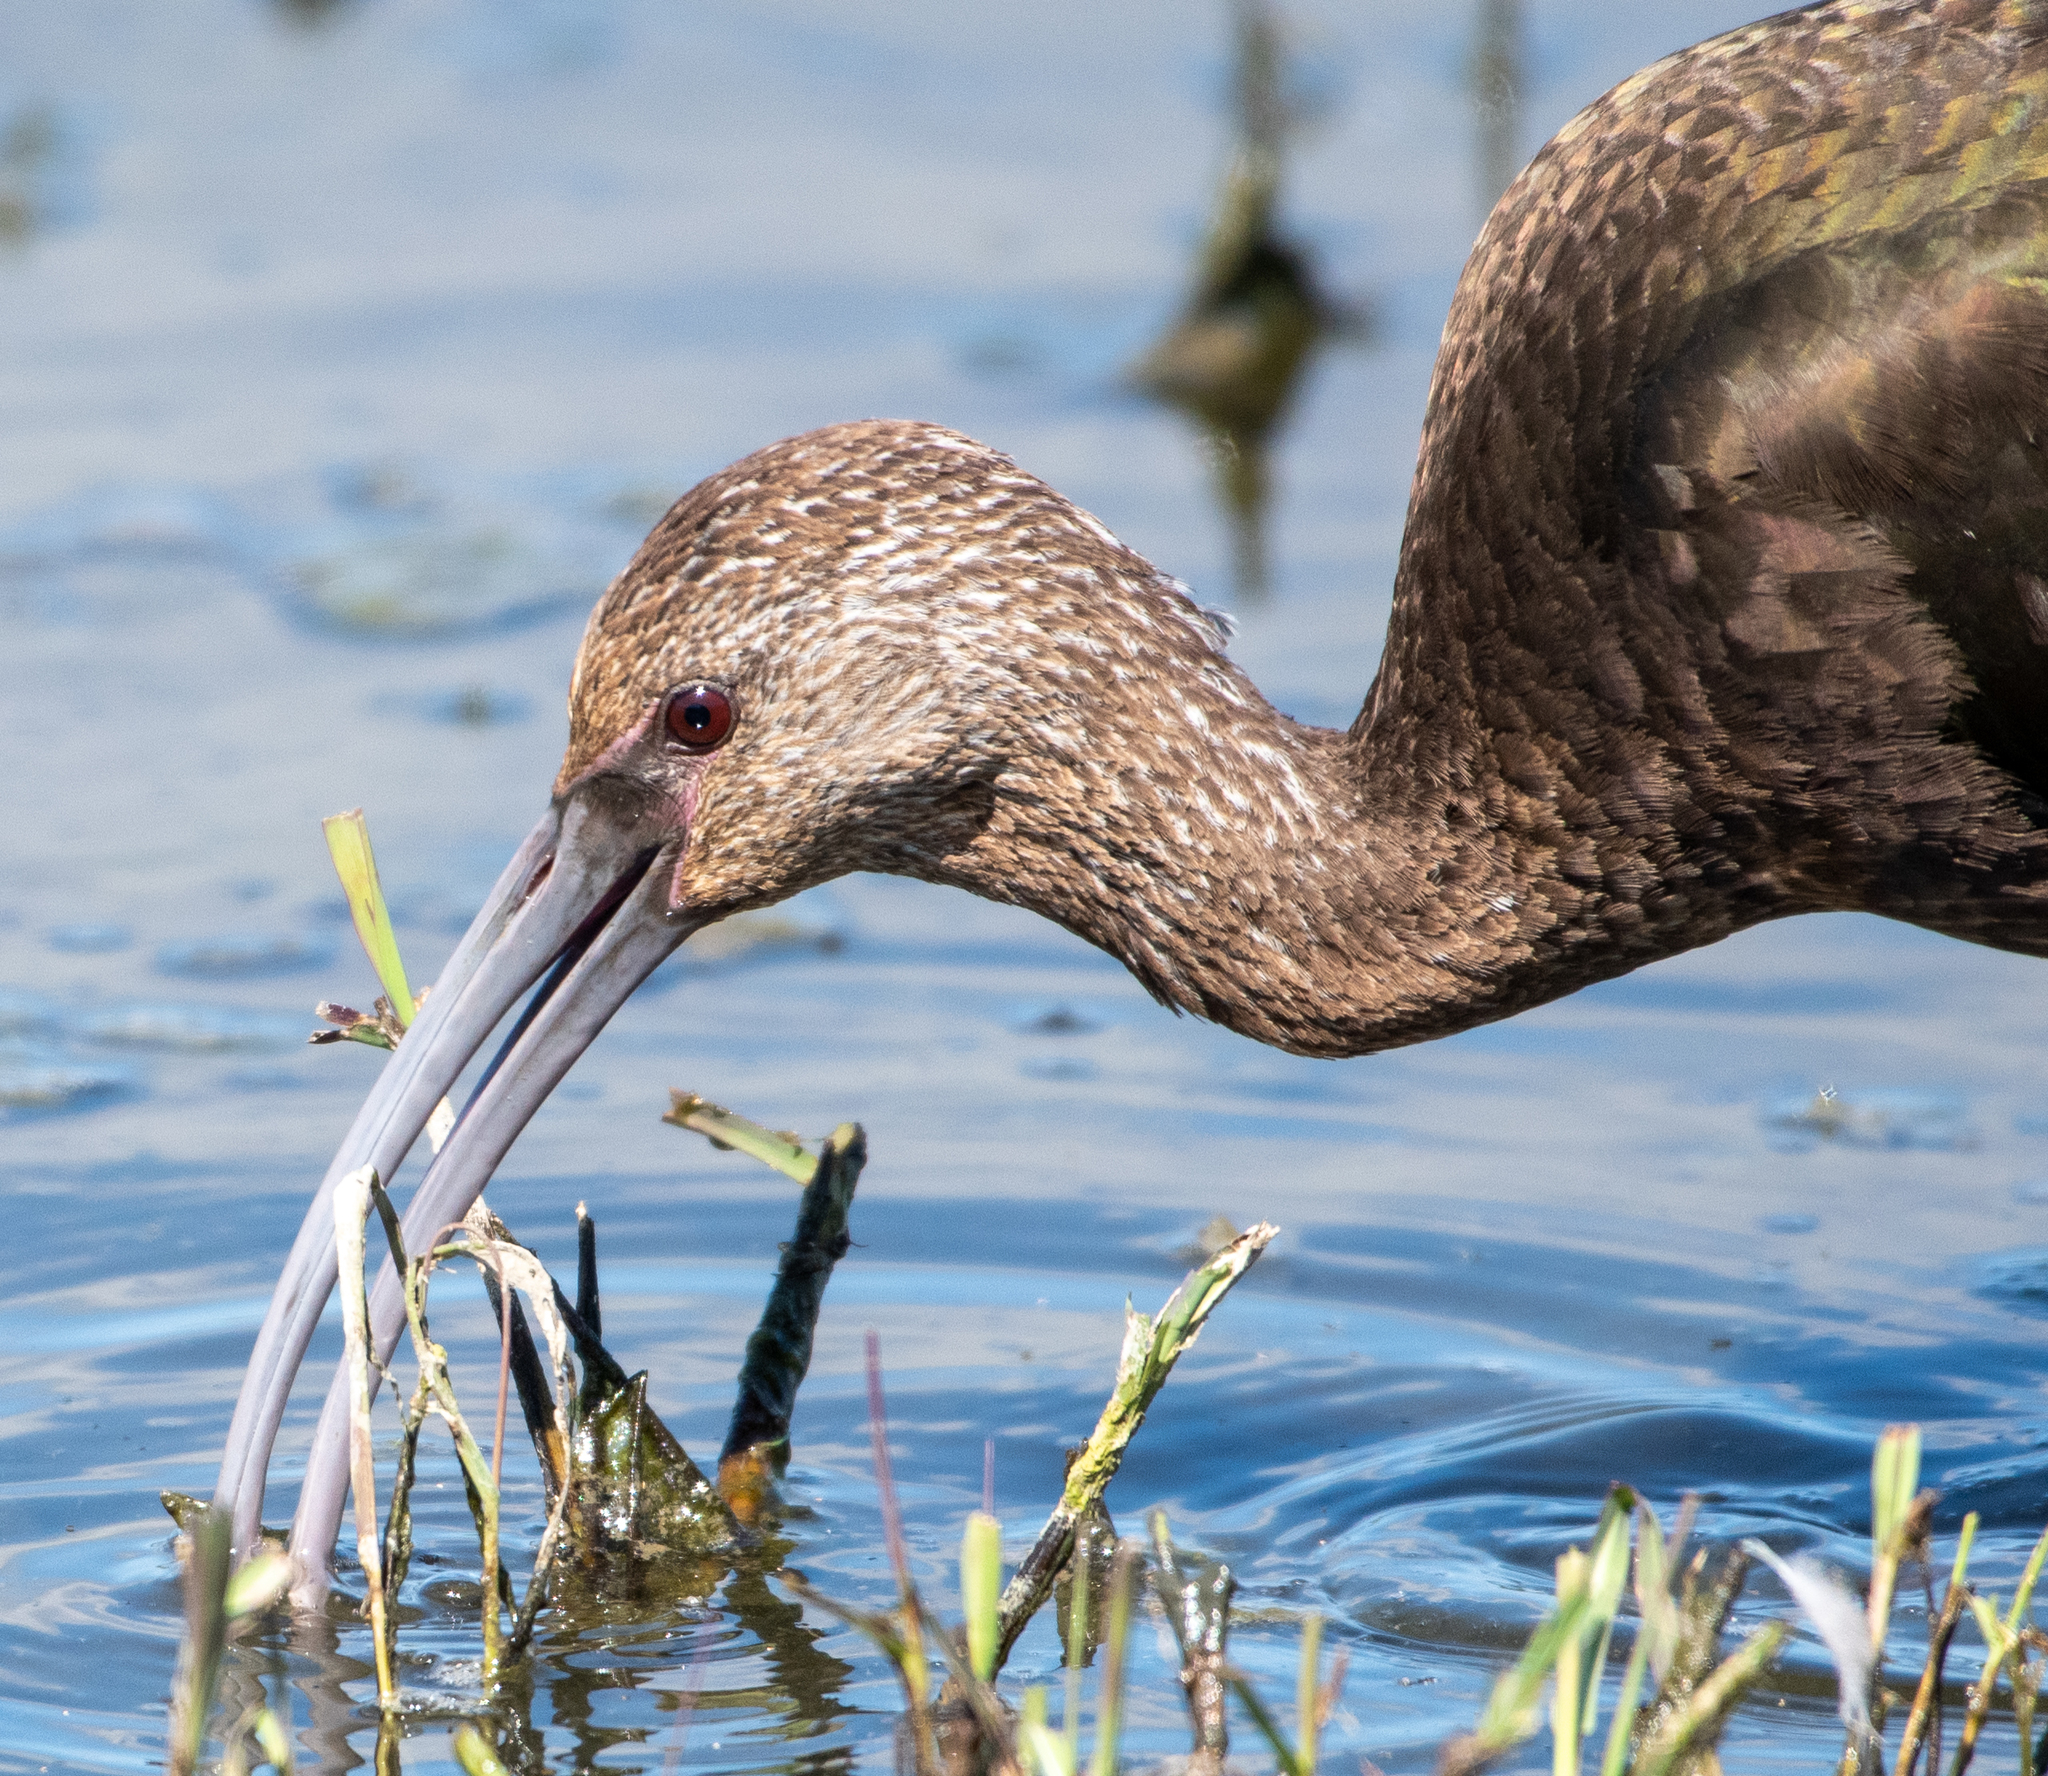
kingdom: Animalia
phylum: Chordata
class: Aves
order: Pelecaniformes
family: Threskiornithidae
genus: Plegadis
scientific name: Plegadis chihi
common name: White-faced ibis
